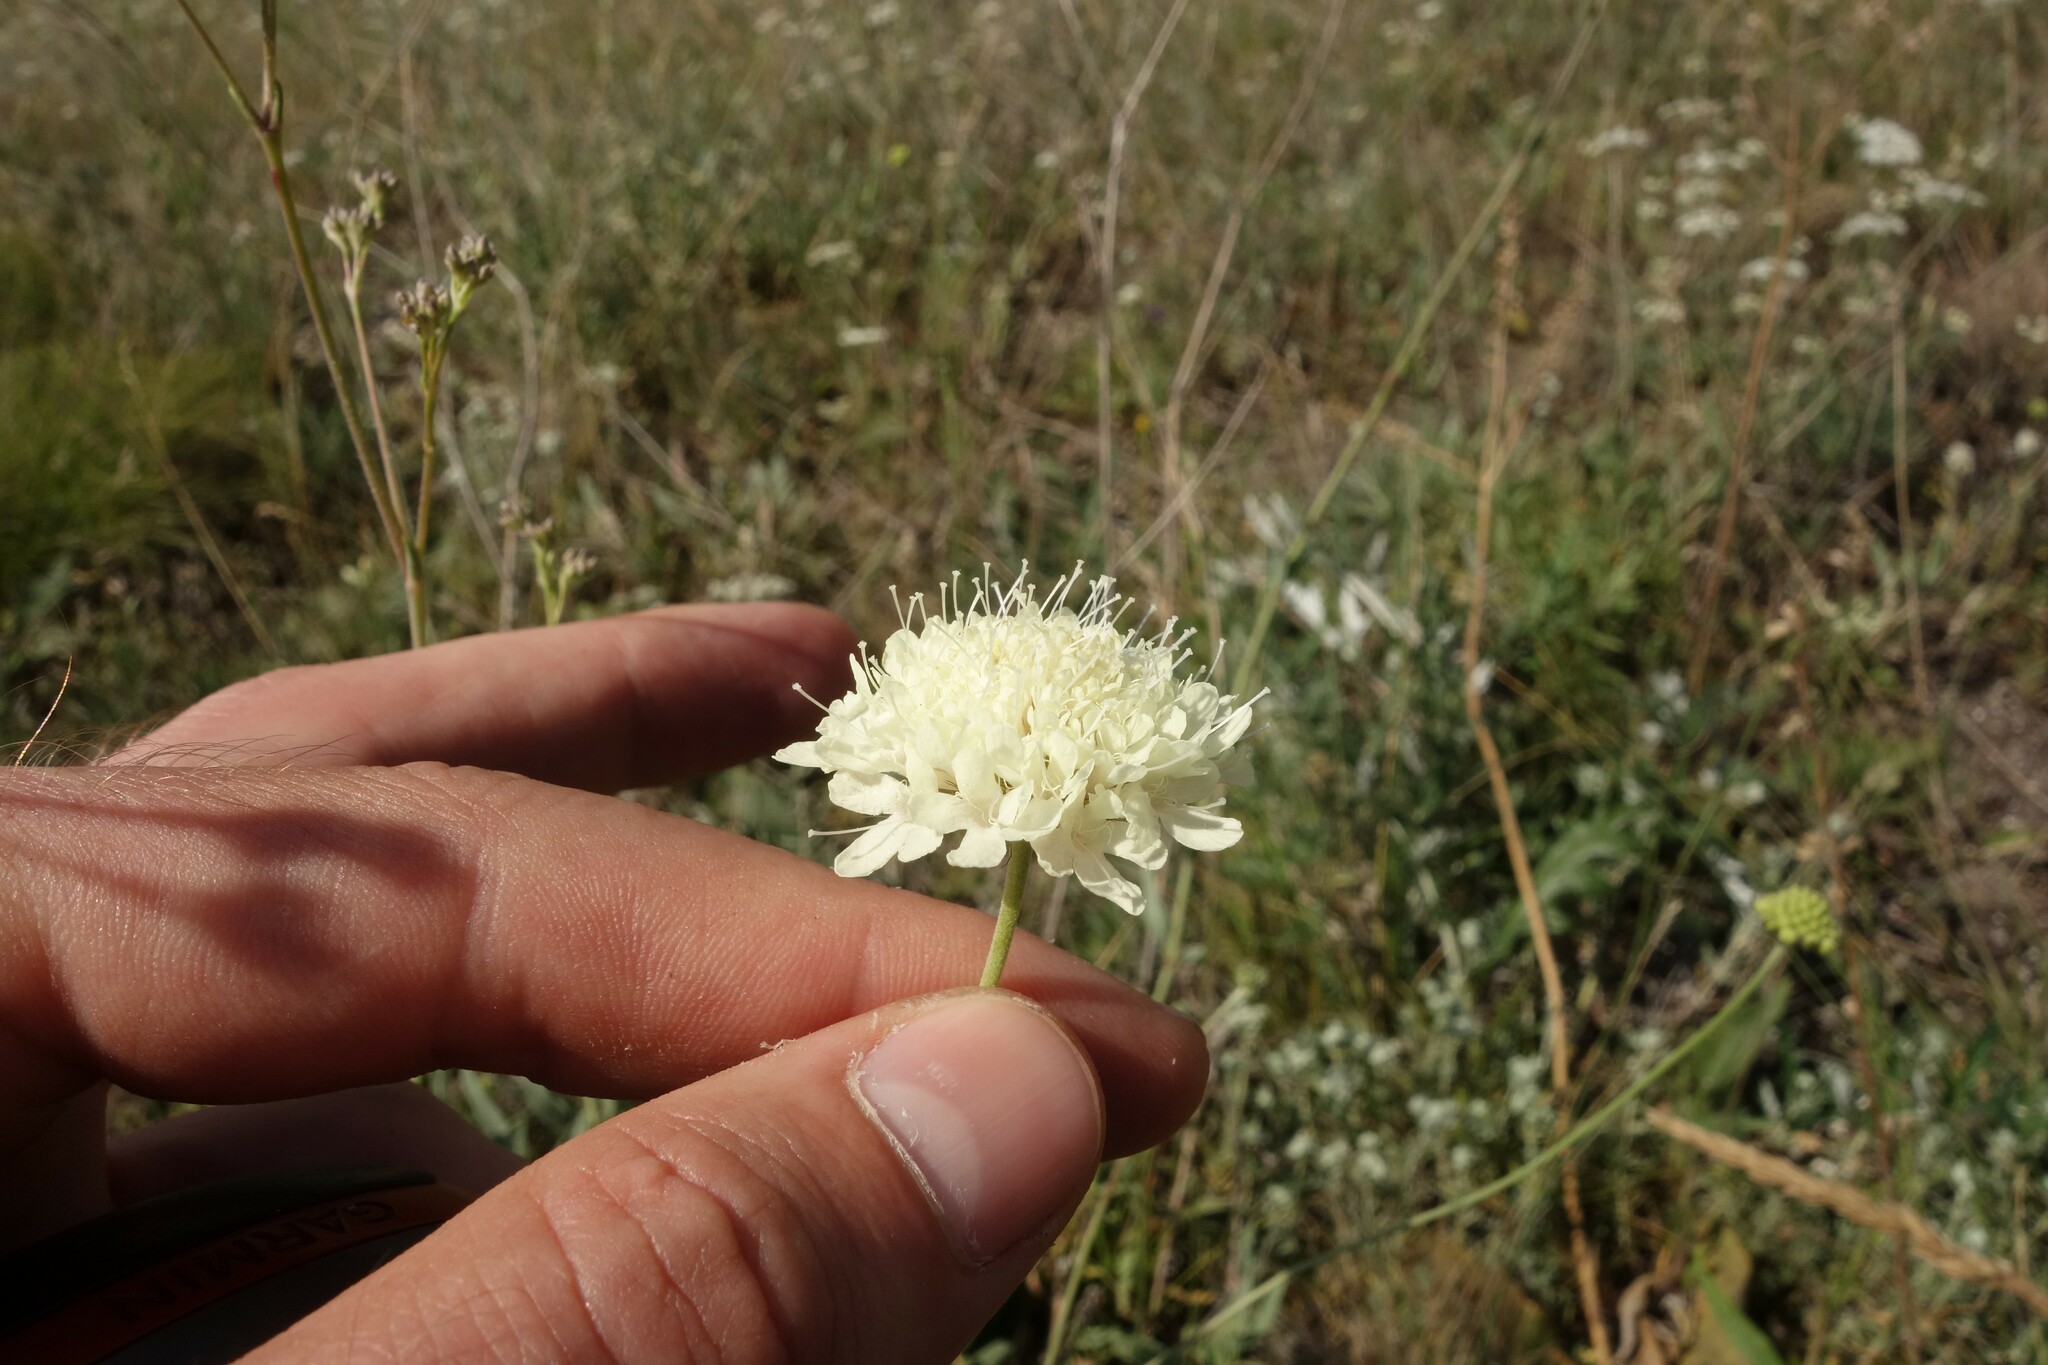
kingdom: Plantae
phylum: Tracheophyta
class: Magnoliopsida
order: Dipsacales
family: Caprifoliaceae
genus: Scabiosa
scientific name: Scabiosa ochroleuca
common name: Cream pincushions
